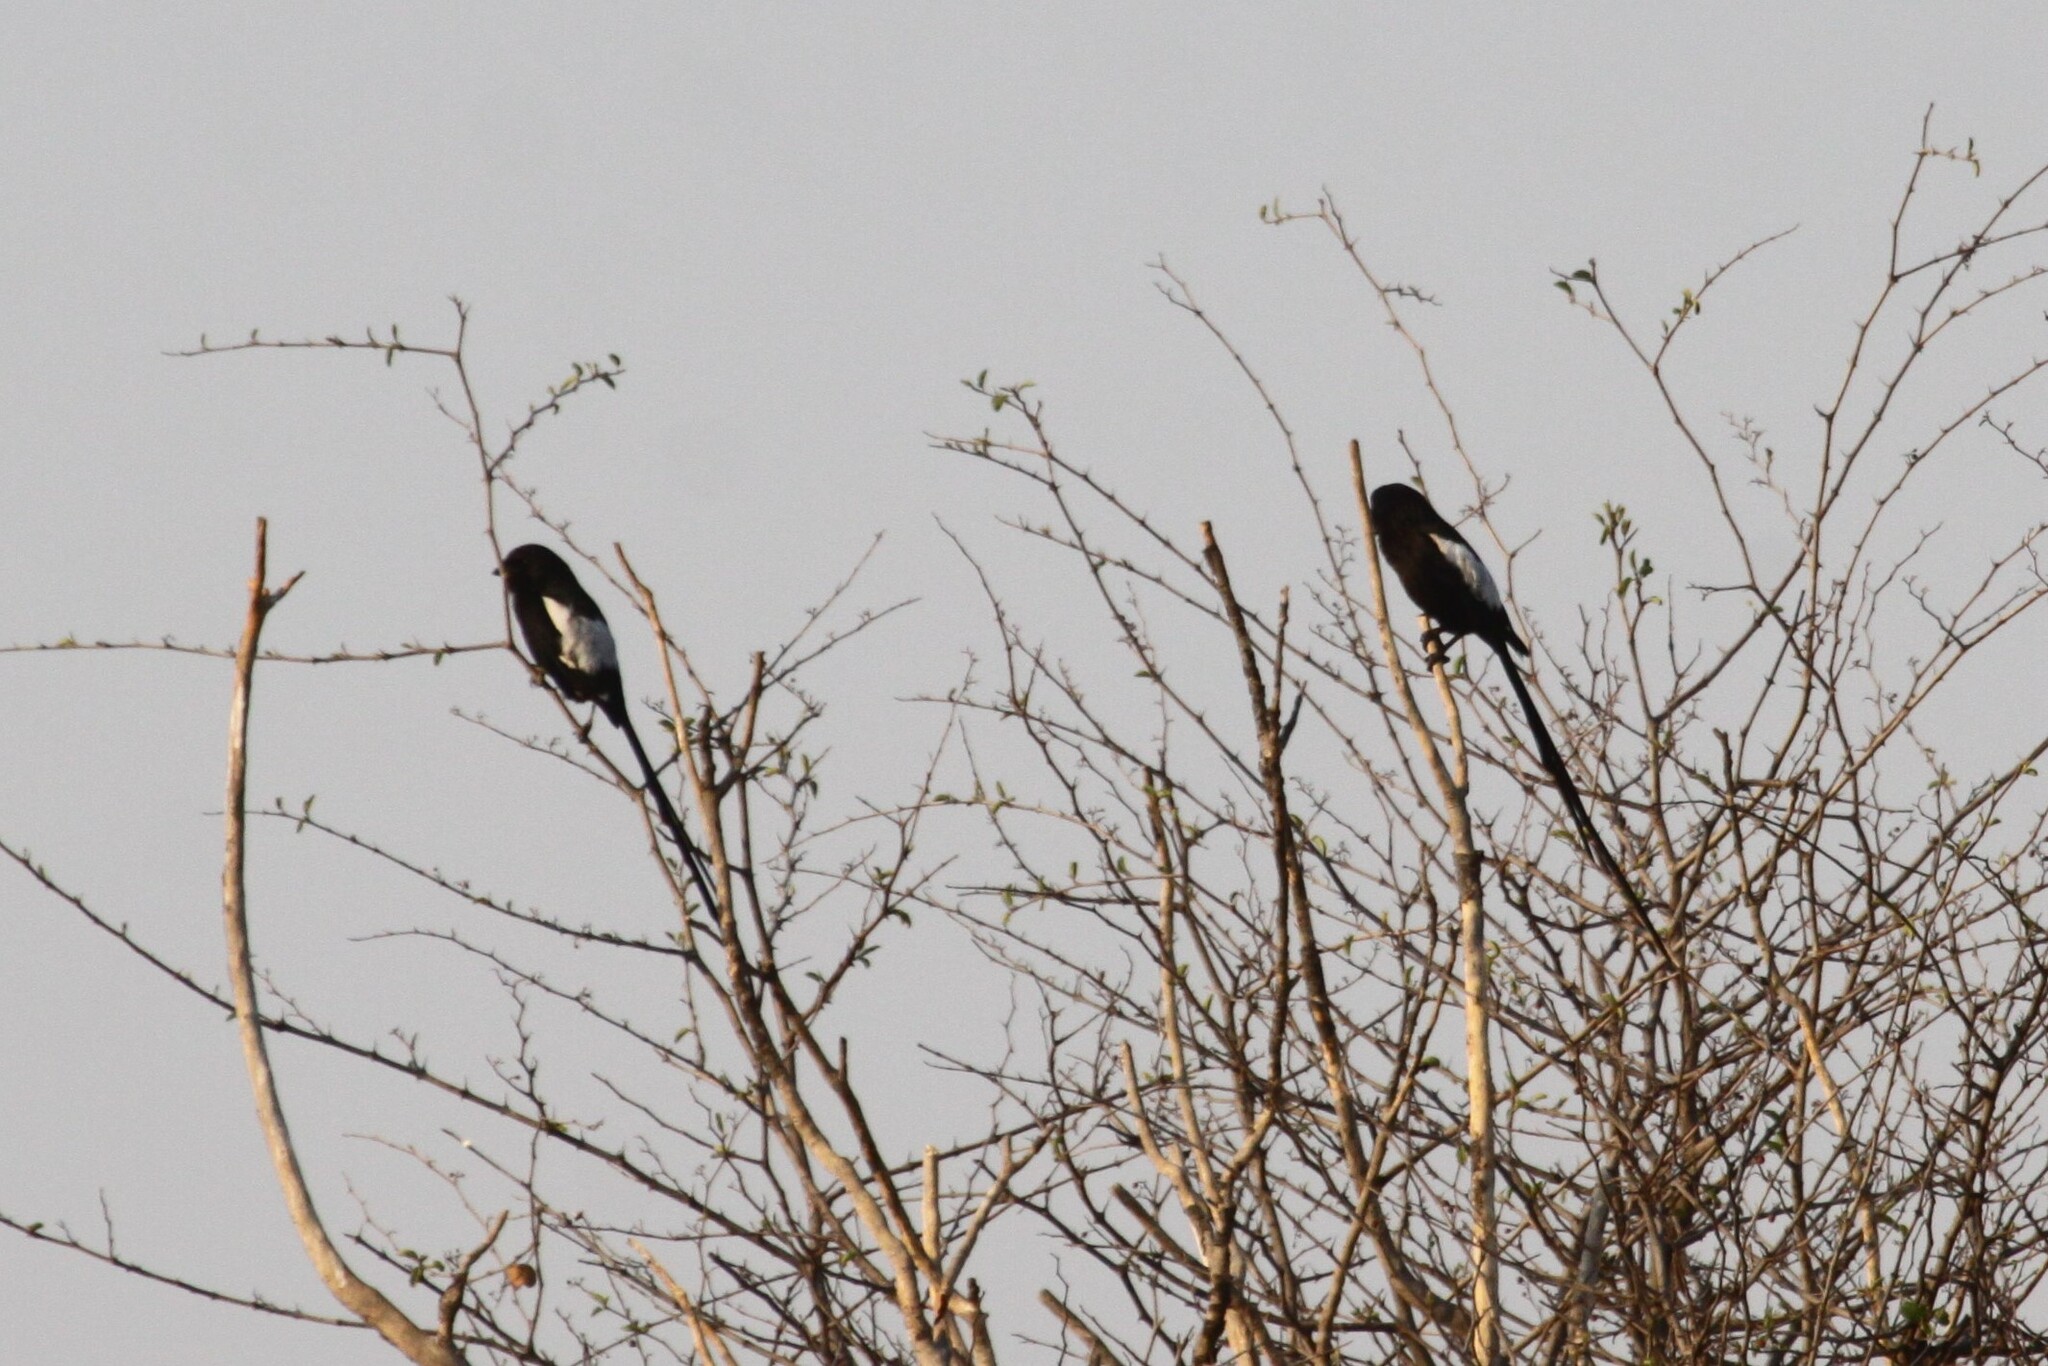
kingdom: Animalia
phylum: Chordata
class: Aves
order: Passeriformes
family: Laniidae
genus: Urolestes
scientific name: Urolestes melanoleucus
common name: Magpie shrike
